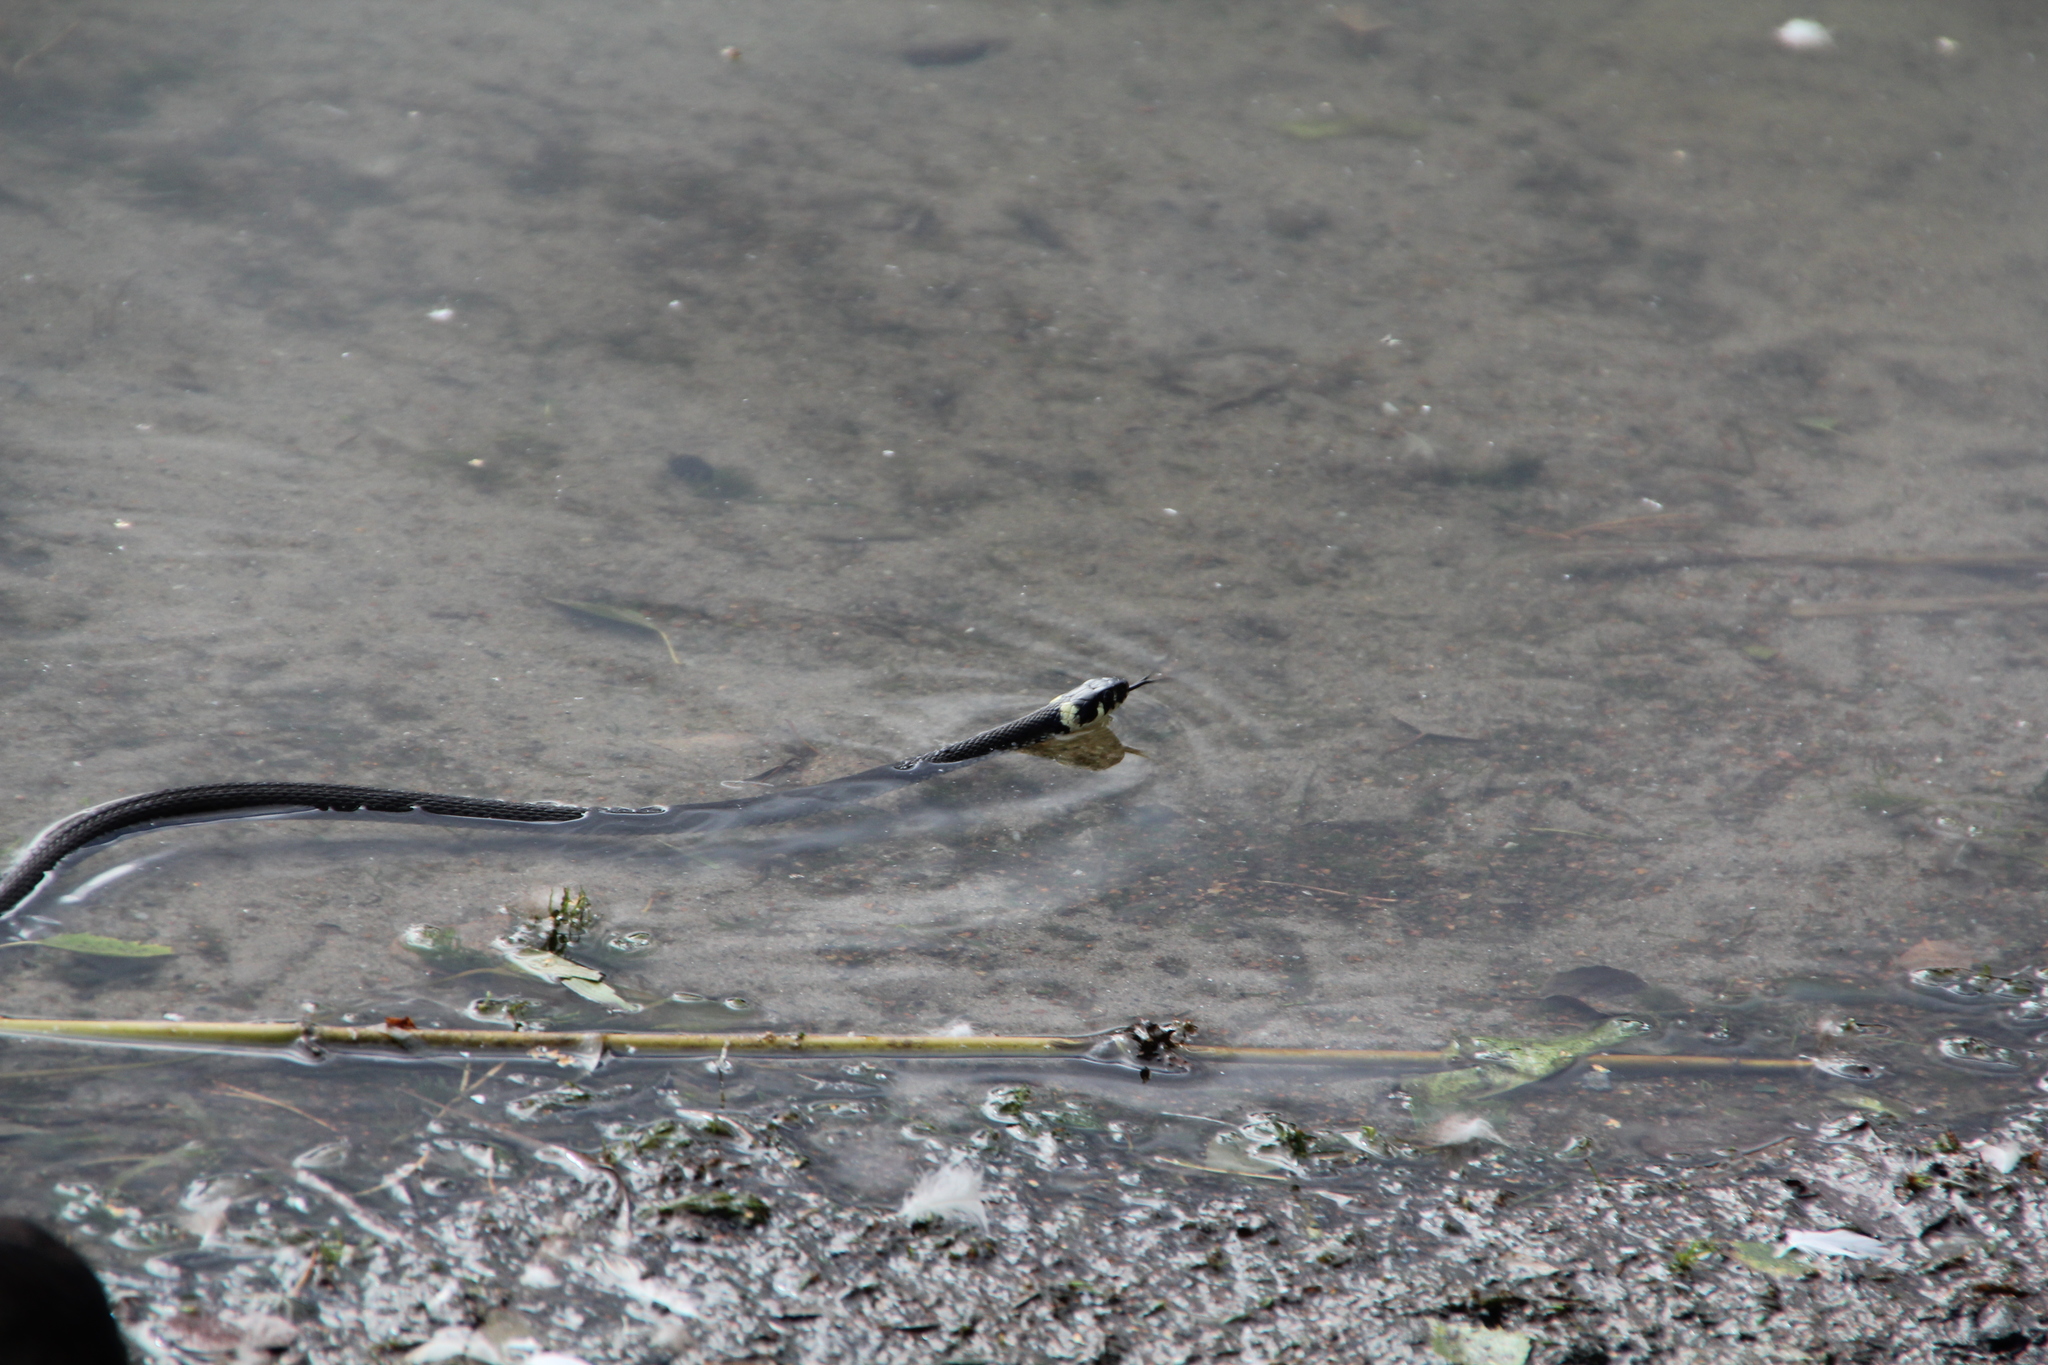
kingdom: Animalia
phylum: Chordata
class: Squamata
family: Colubridae
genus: Natrix
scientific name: Natrix natrix
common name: Grass snake
